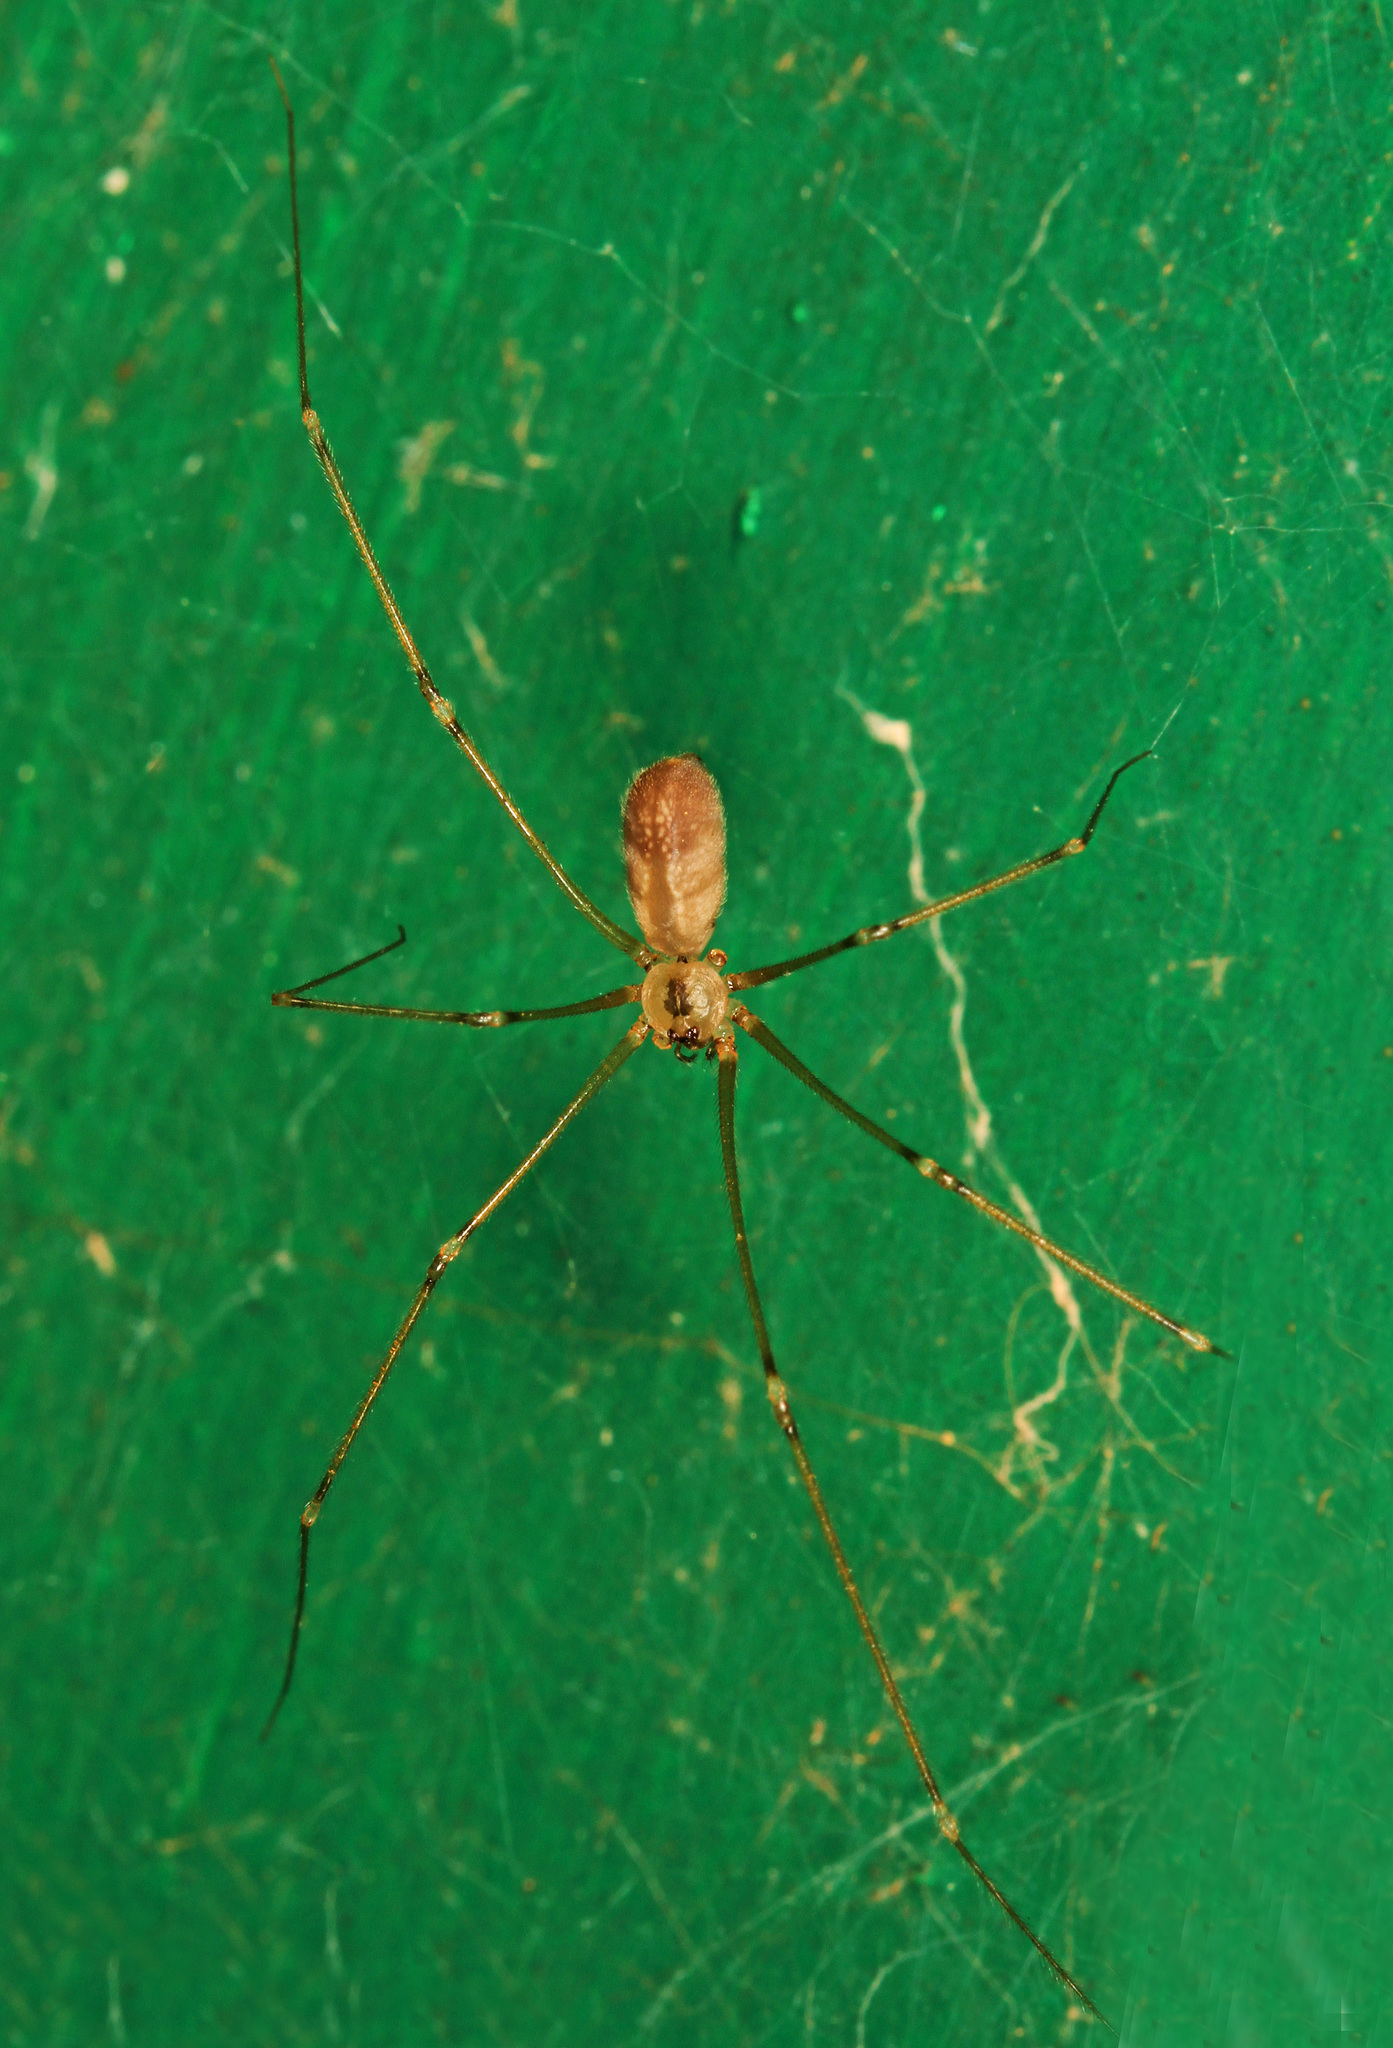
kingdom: Animalia
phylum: Arthropoda
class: Arachnida
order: Araneae
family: Pholcidae
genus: Pholcus
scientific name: Pholcus phalangioides
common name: Longbodied cellar spider
